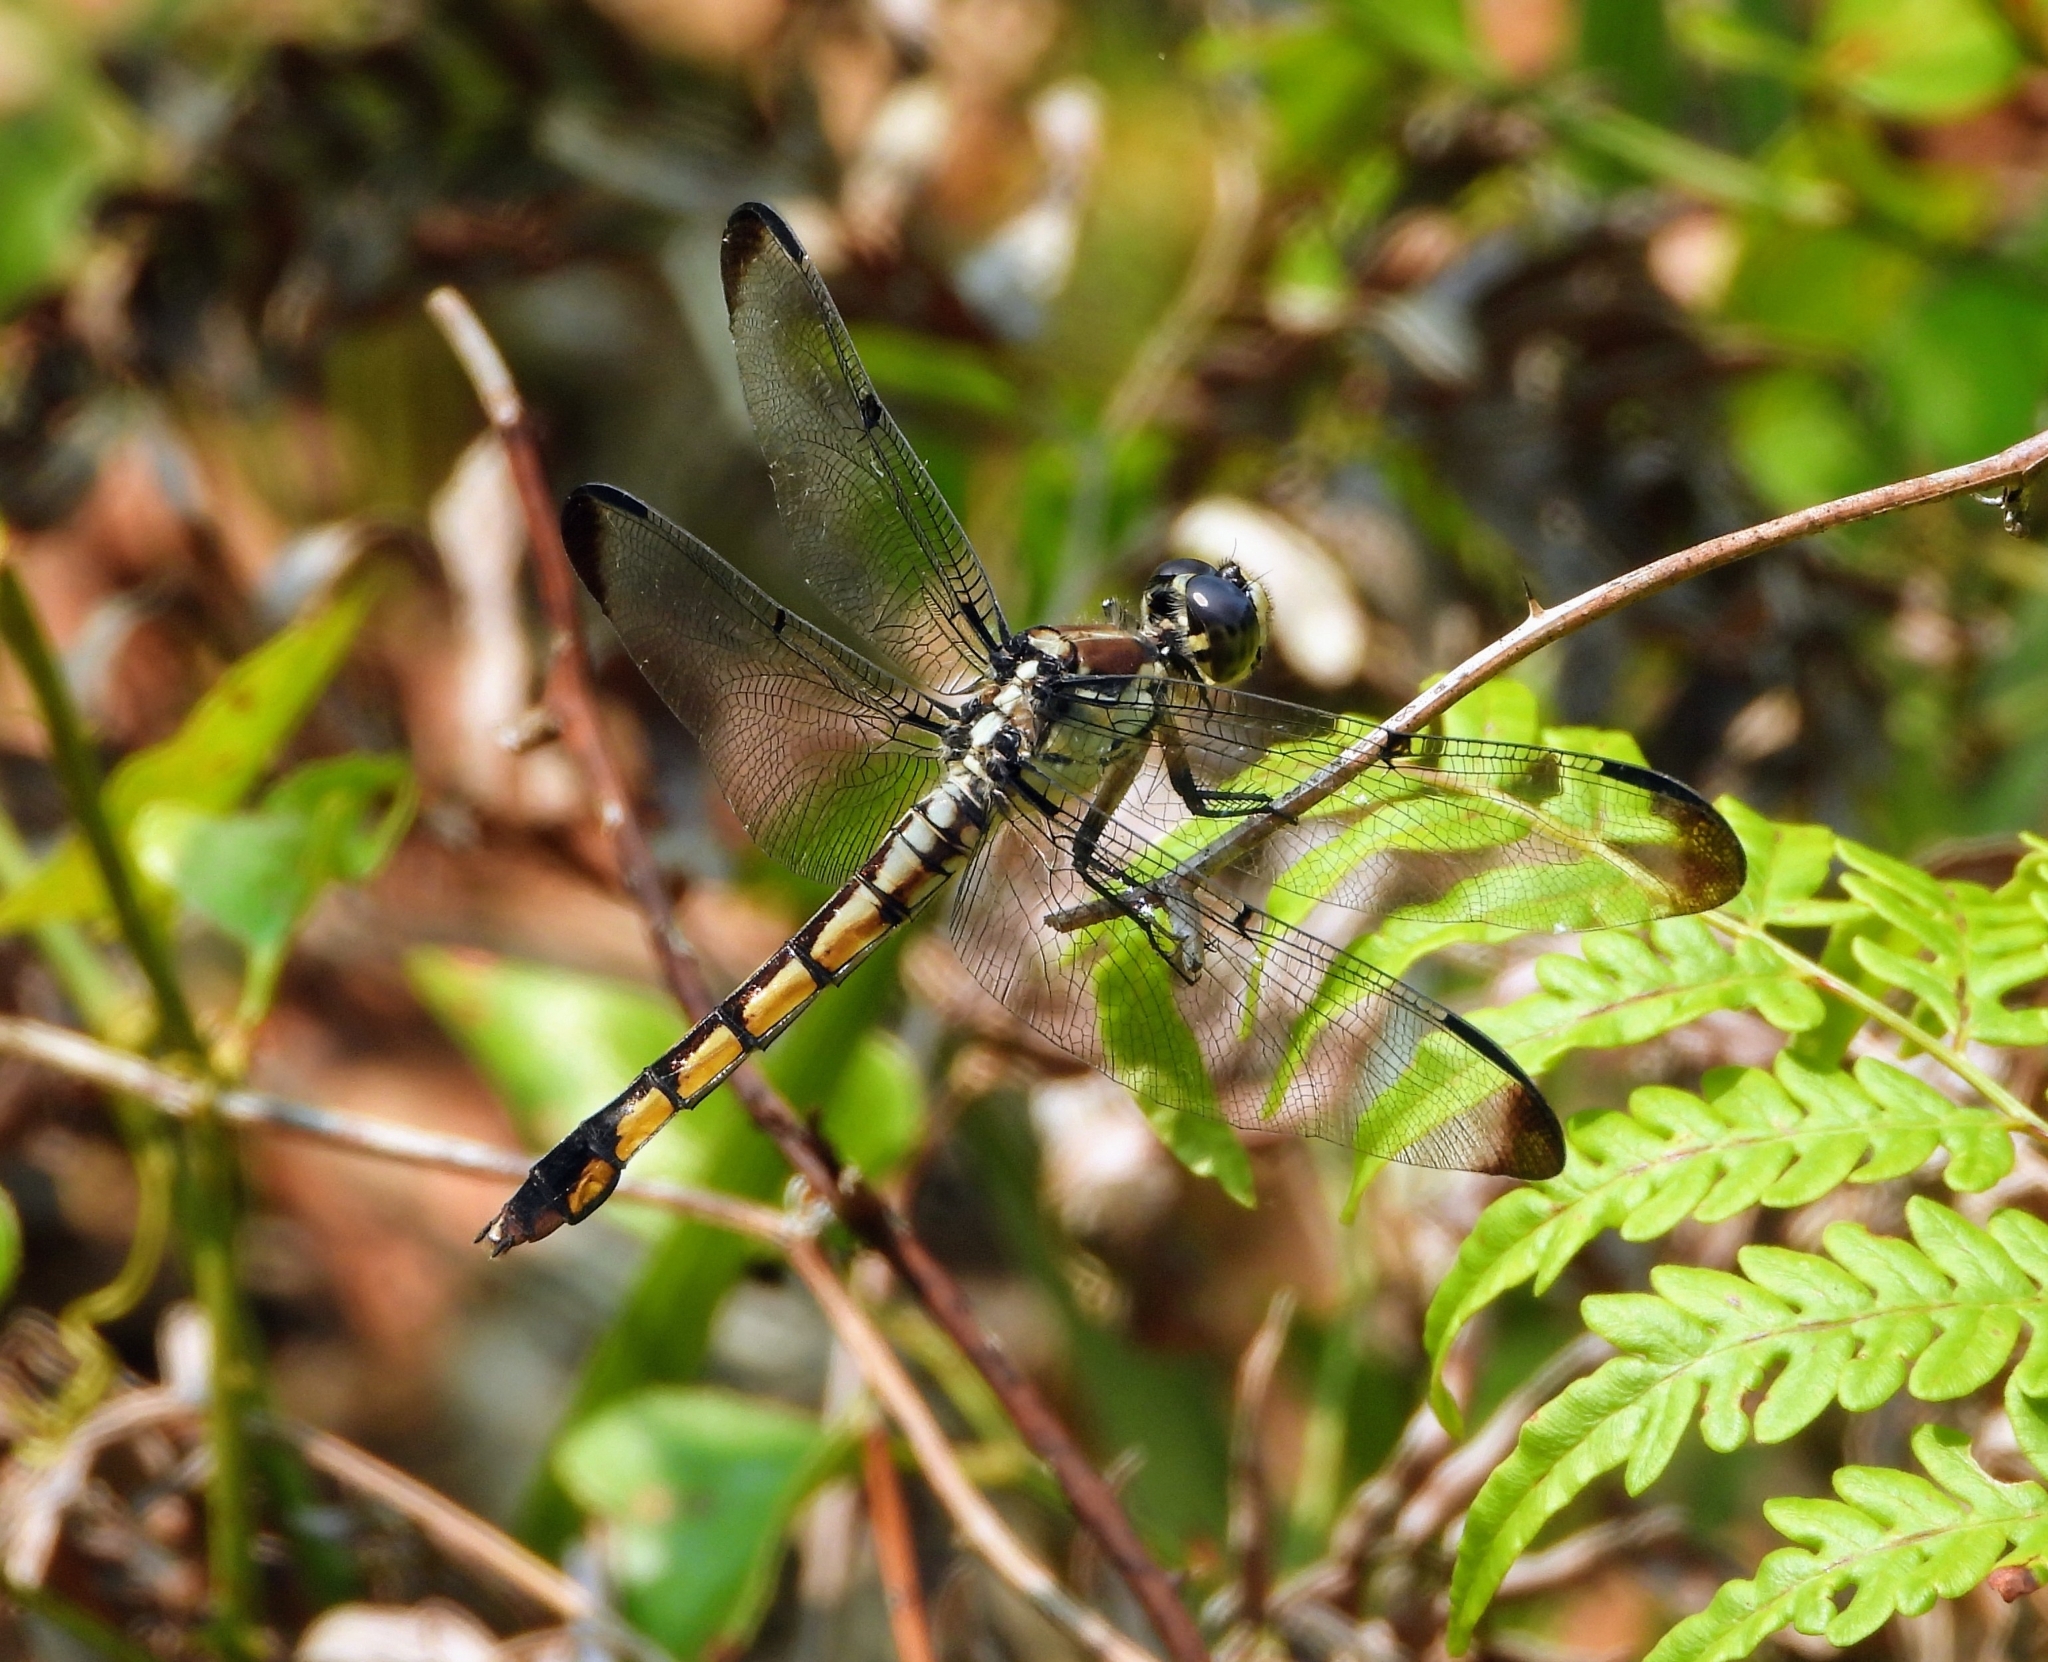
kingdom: Animalia
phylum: Arthropoda
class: Insecta
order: Odonata
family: Libellulidae
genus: Libellula
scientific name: Libellula vibrans
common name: Great blue skimmer
